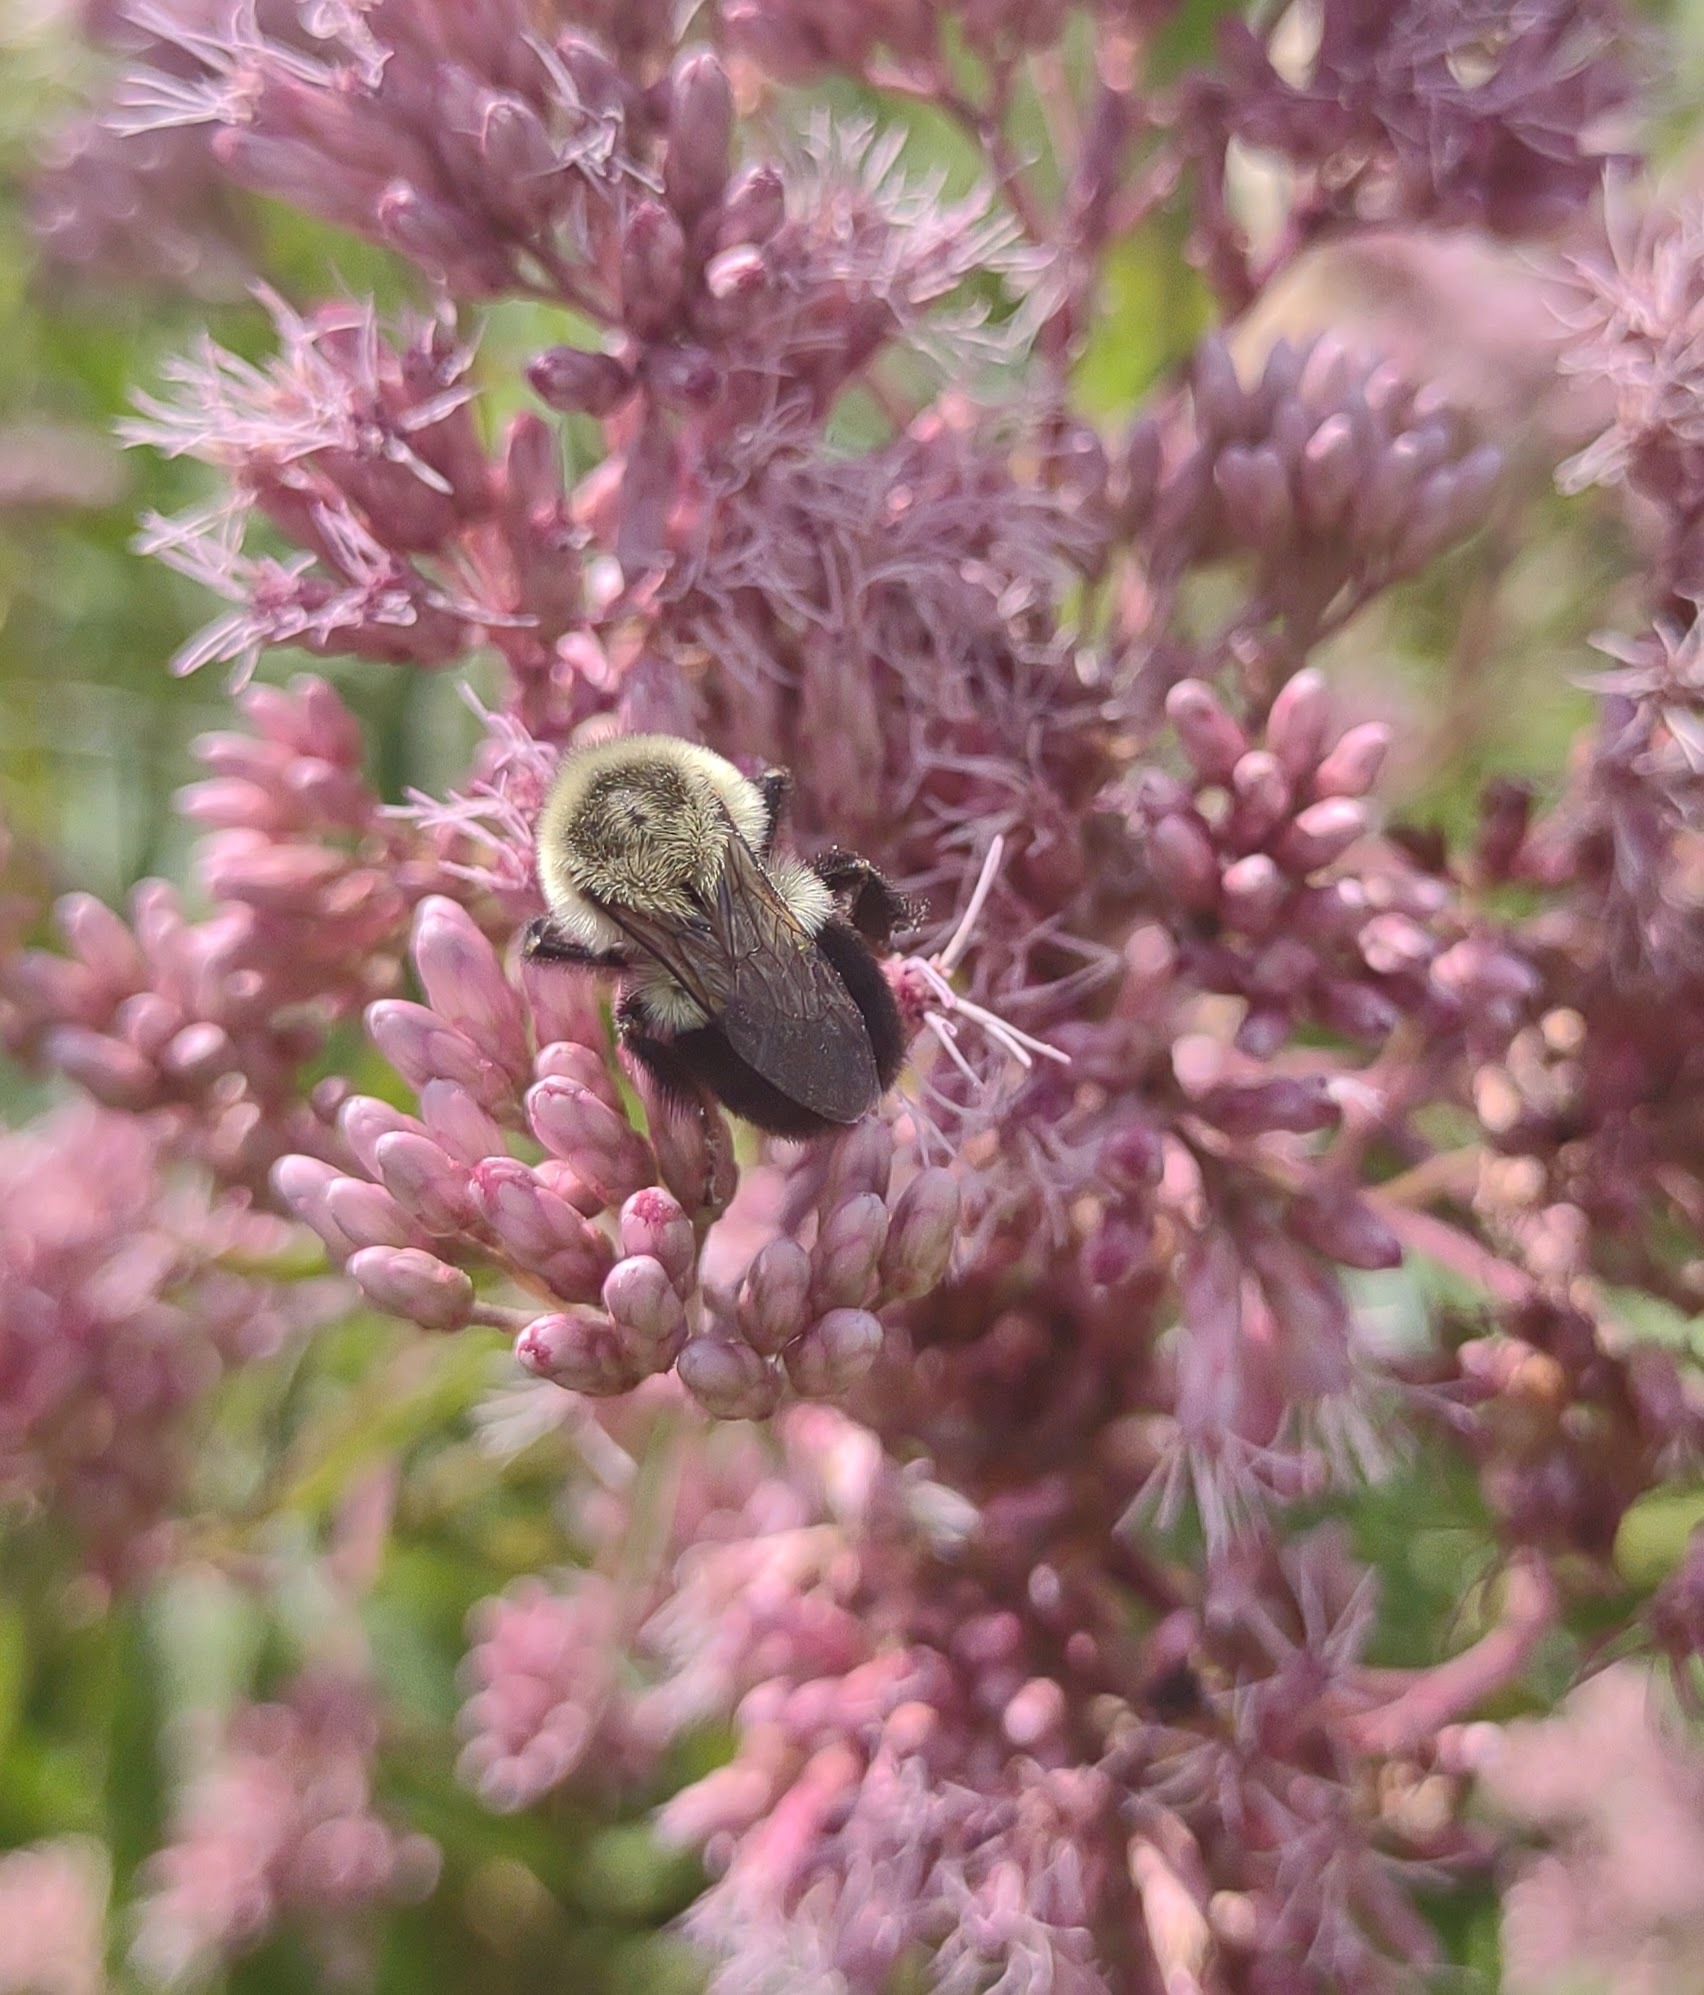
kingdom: Animalia
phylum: Arthropoda
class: Insecta
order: Hymenoptera
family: Apidae
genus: Bombus
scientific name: Bombus impatiens
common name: Common eastern bumble bee
